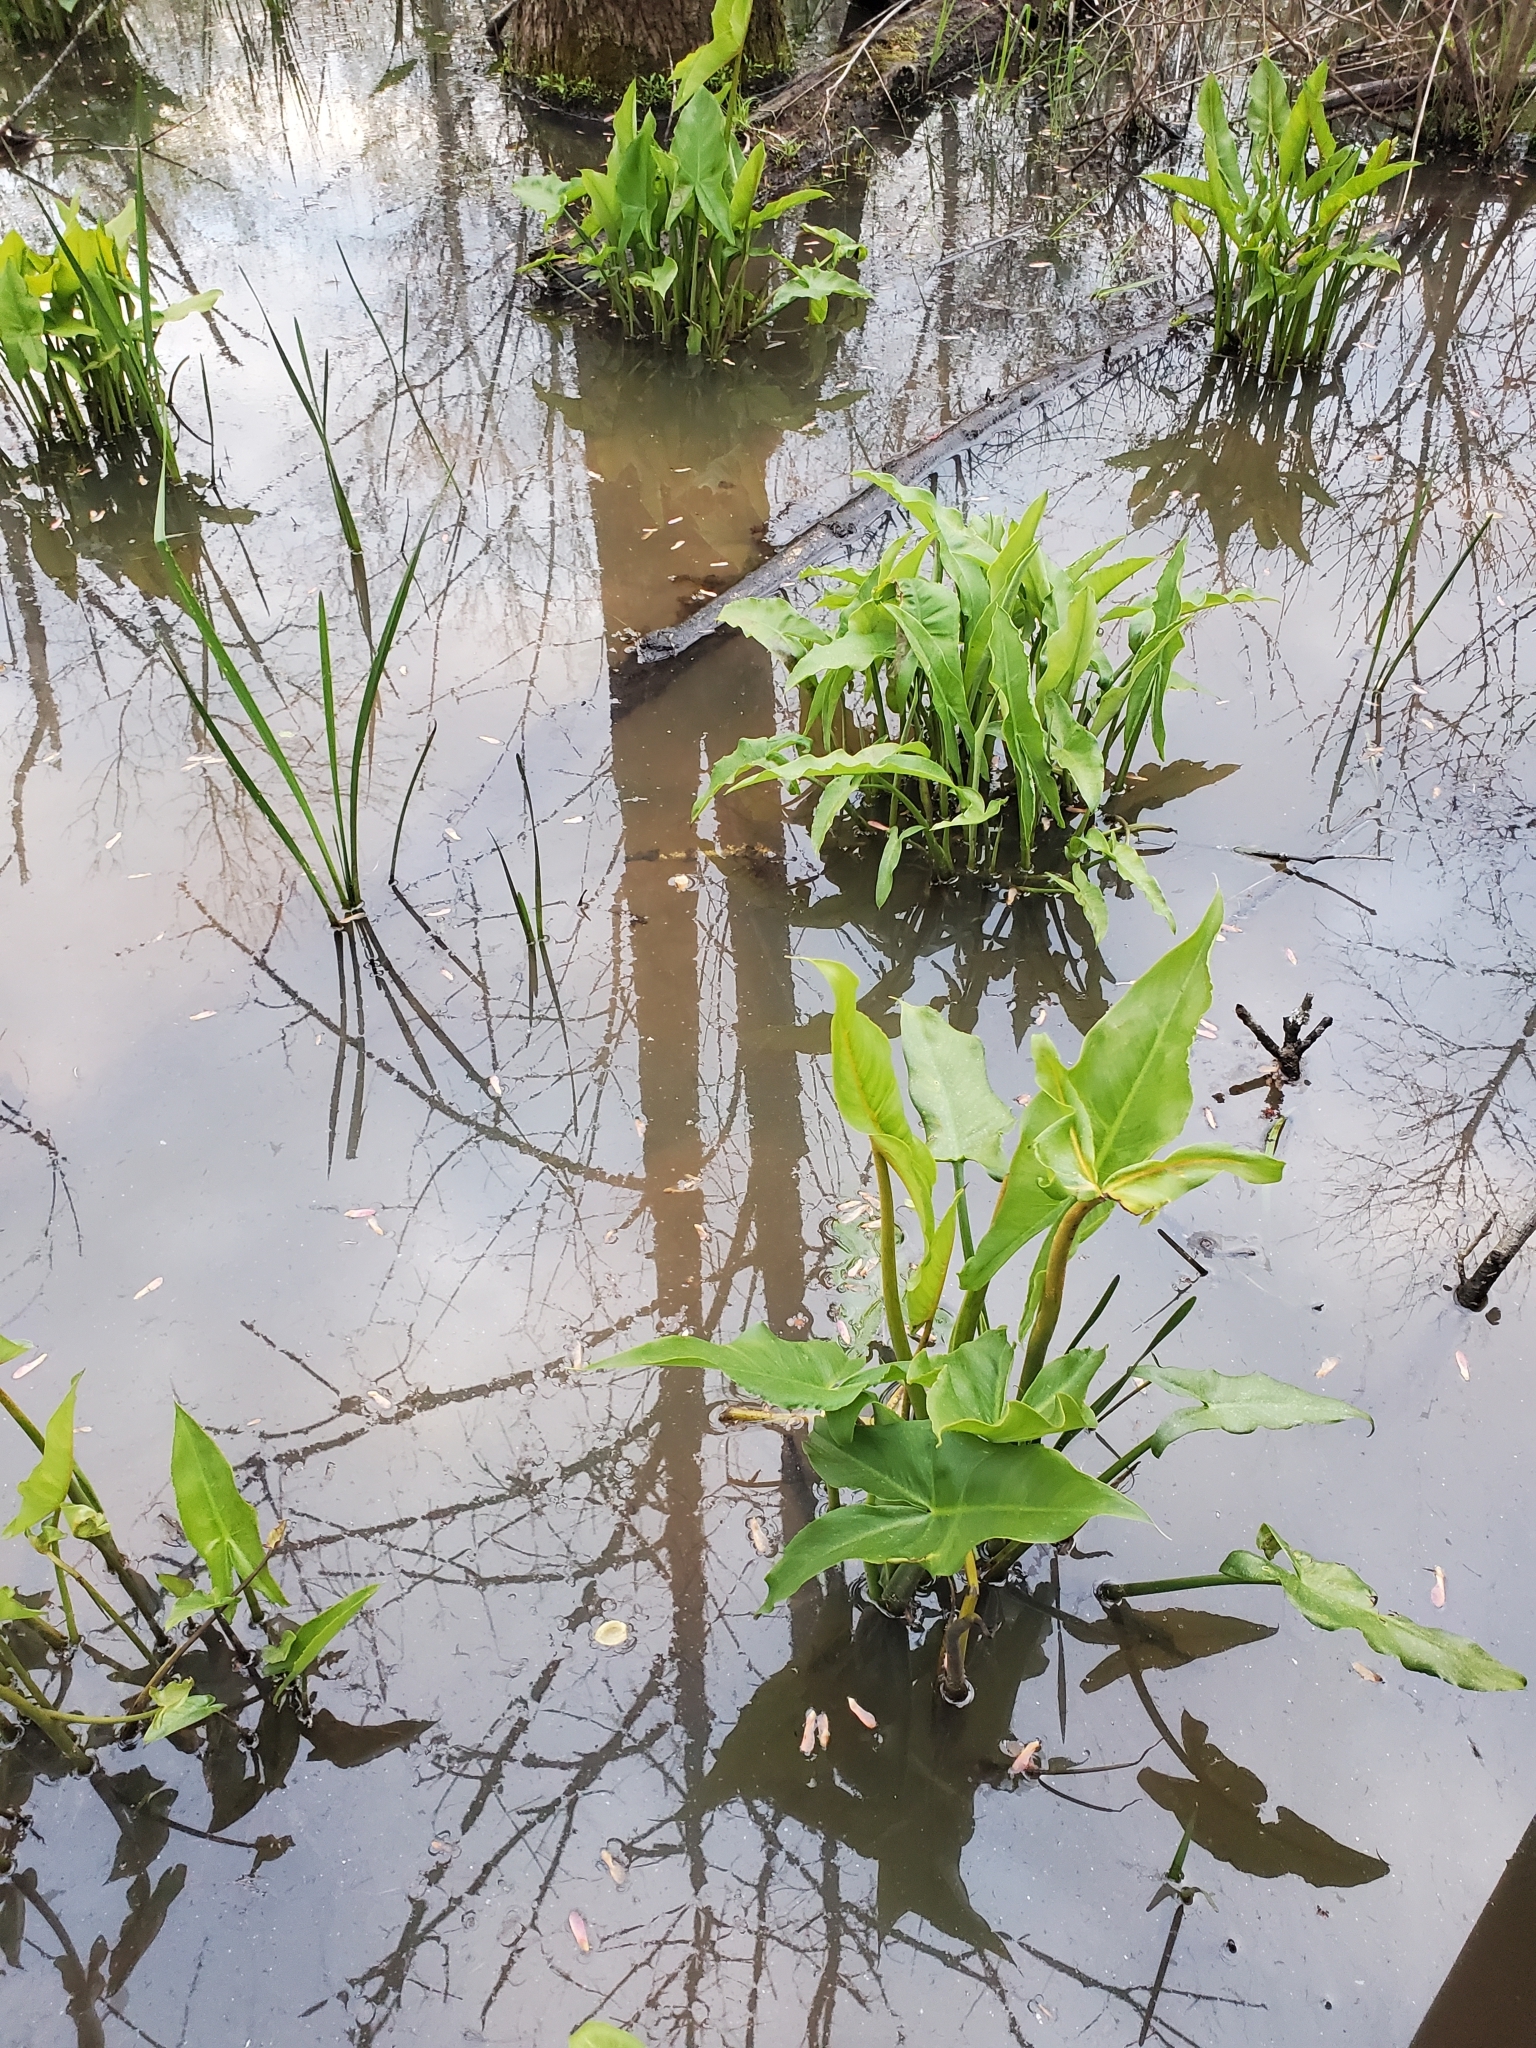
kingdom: Plantae
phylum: Tracheophyta
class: Liliopsida
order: Alismatales
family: Araceae
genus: Peltandra
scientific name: Peltandra virginica
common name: Arrow arum
